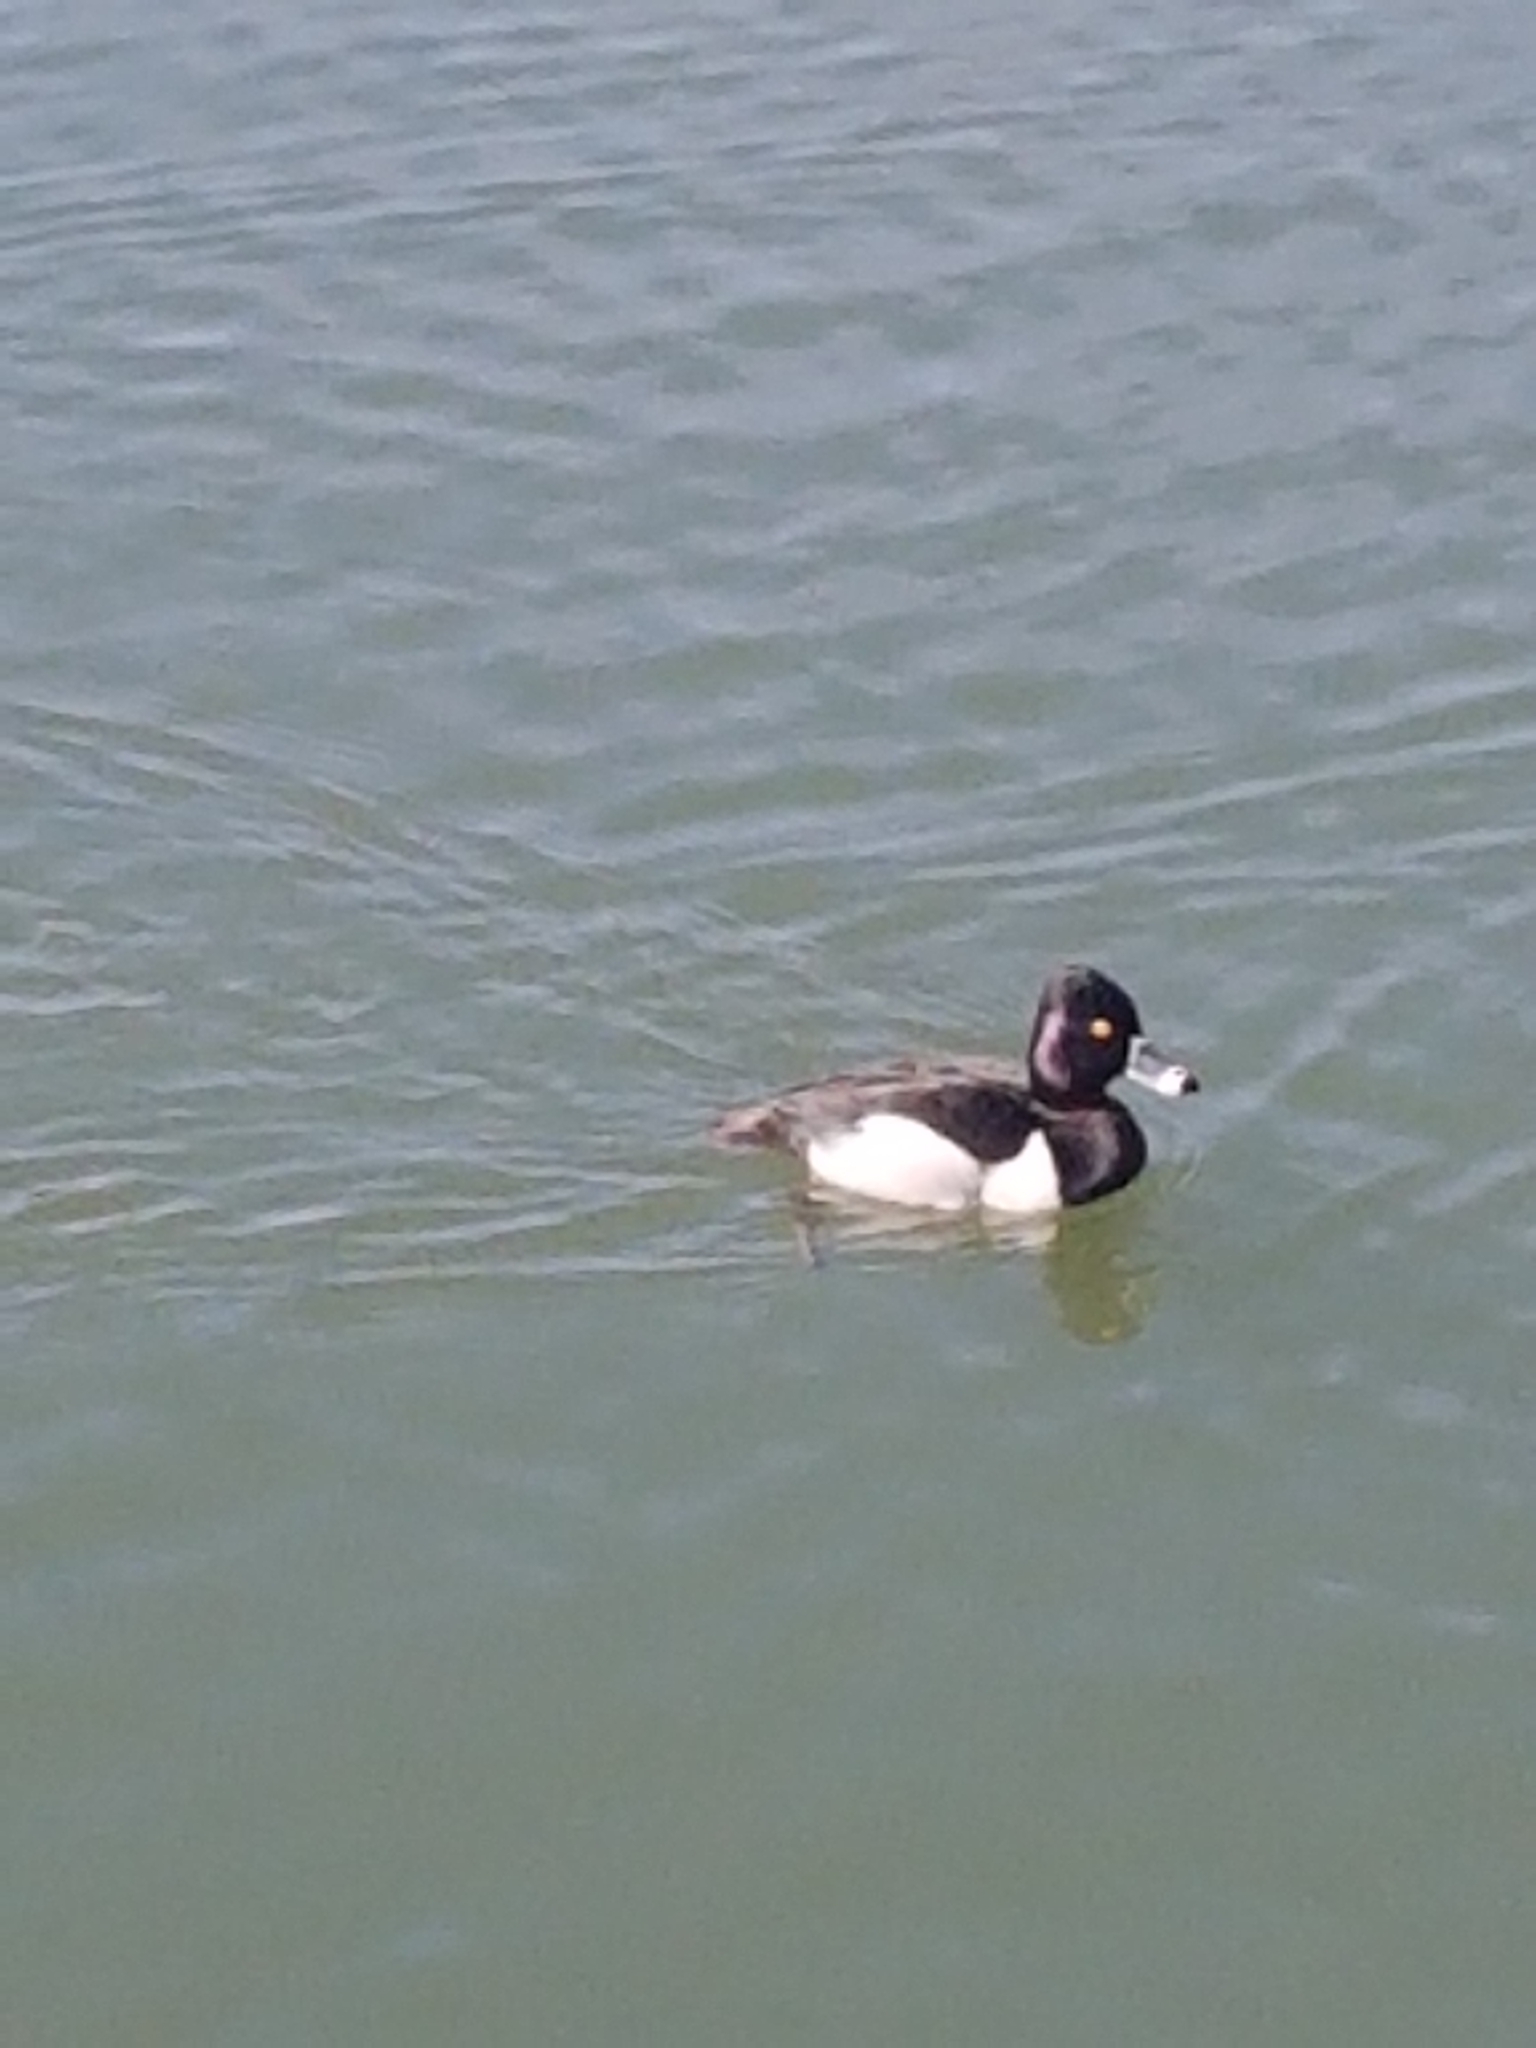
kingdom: Animalia
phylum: Chordata
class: Aves
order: Anseriformes
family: Anatidae
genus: Aythya
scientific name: Aythya collaris
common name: Ring-necked duck
